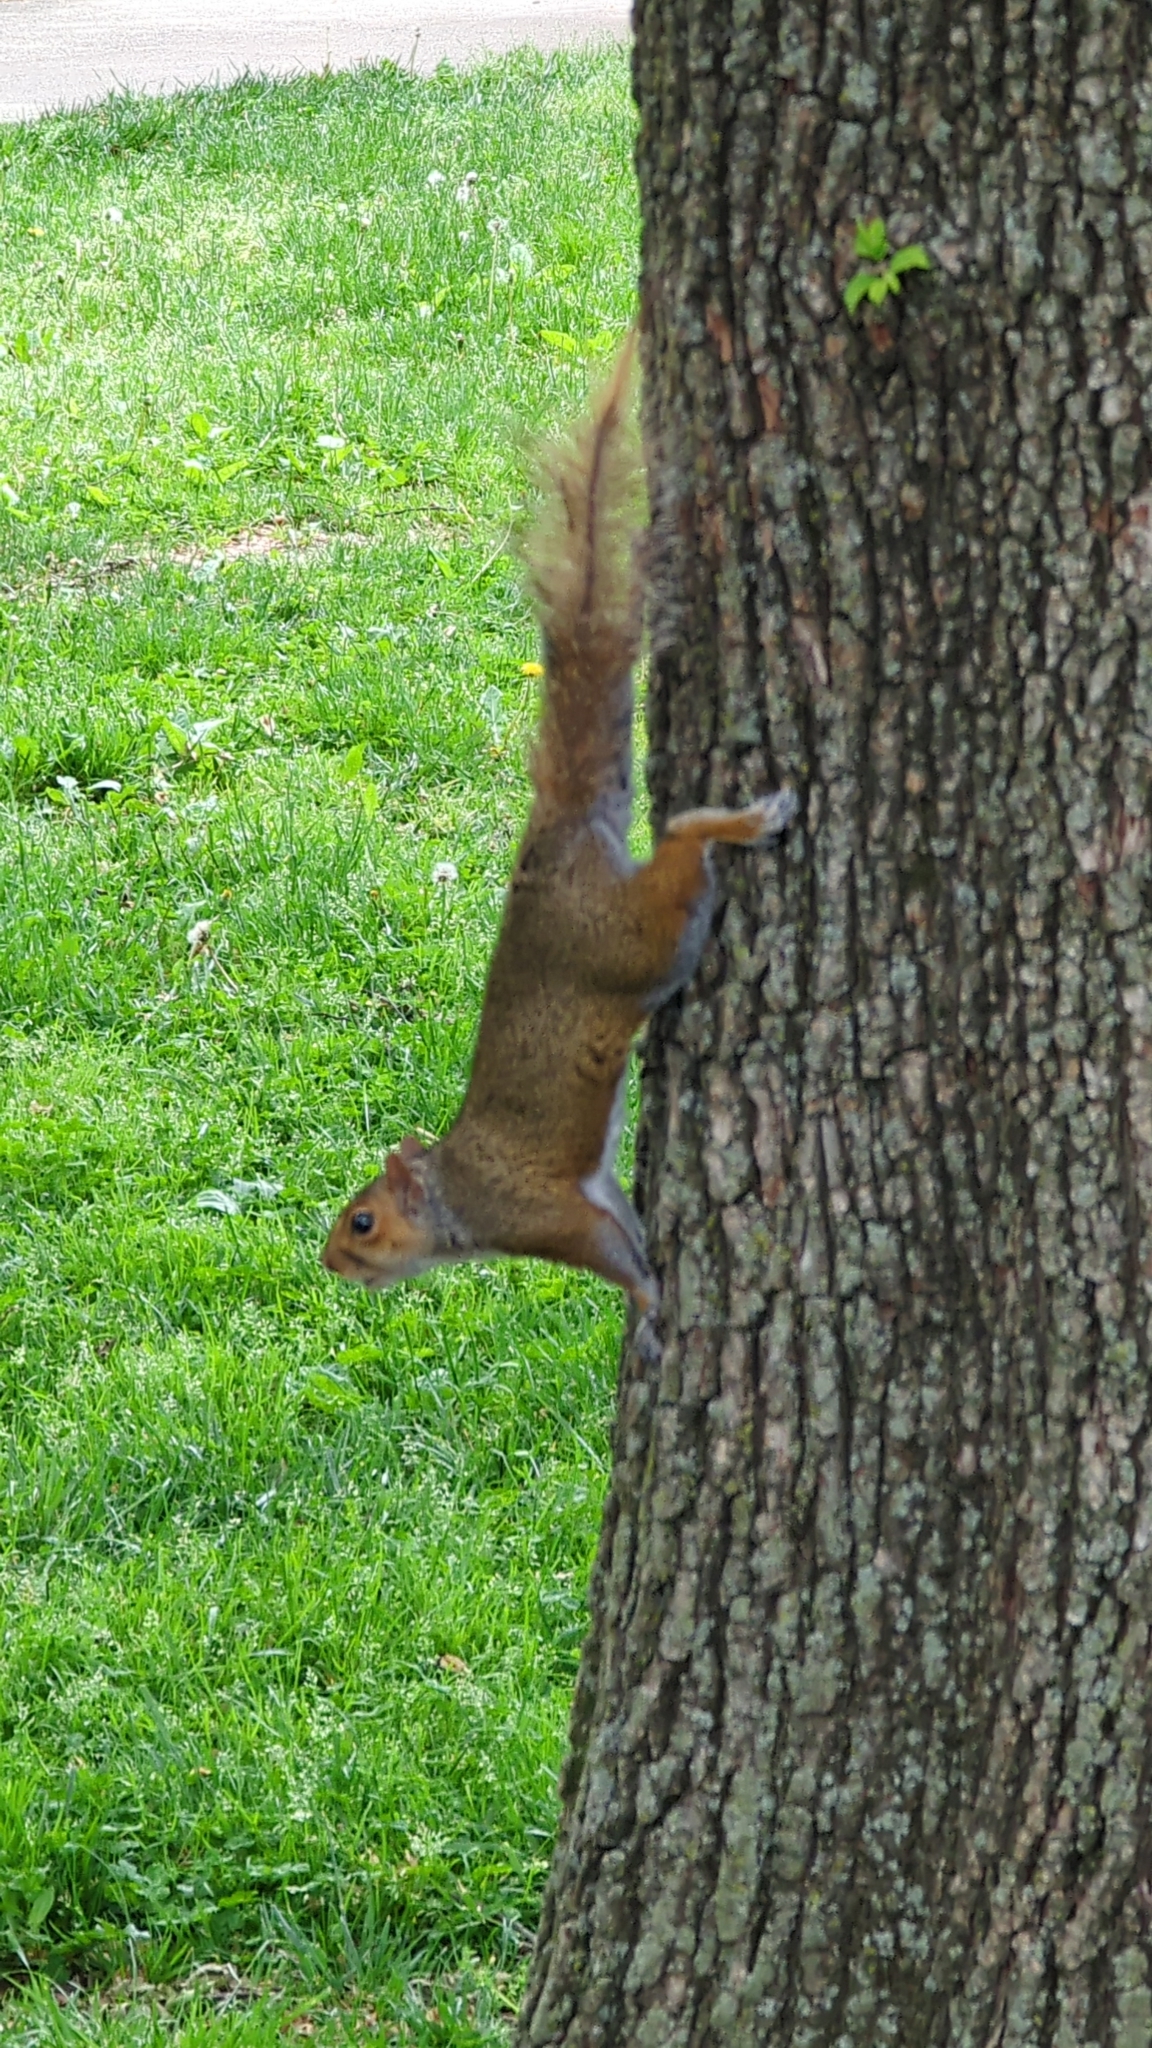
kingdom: Animalia
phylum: Chordata
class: Mammalia
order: Rodentia
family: Sciuridae
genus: Sciurus
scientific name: Sciurus carolinensis
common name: Eastern gray squirrel
